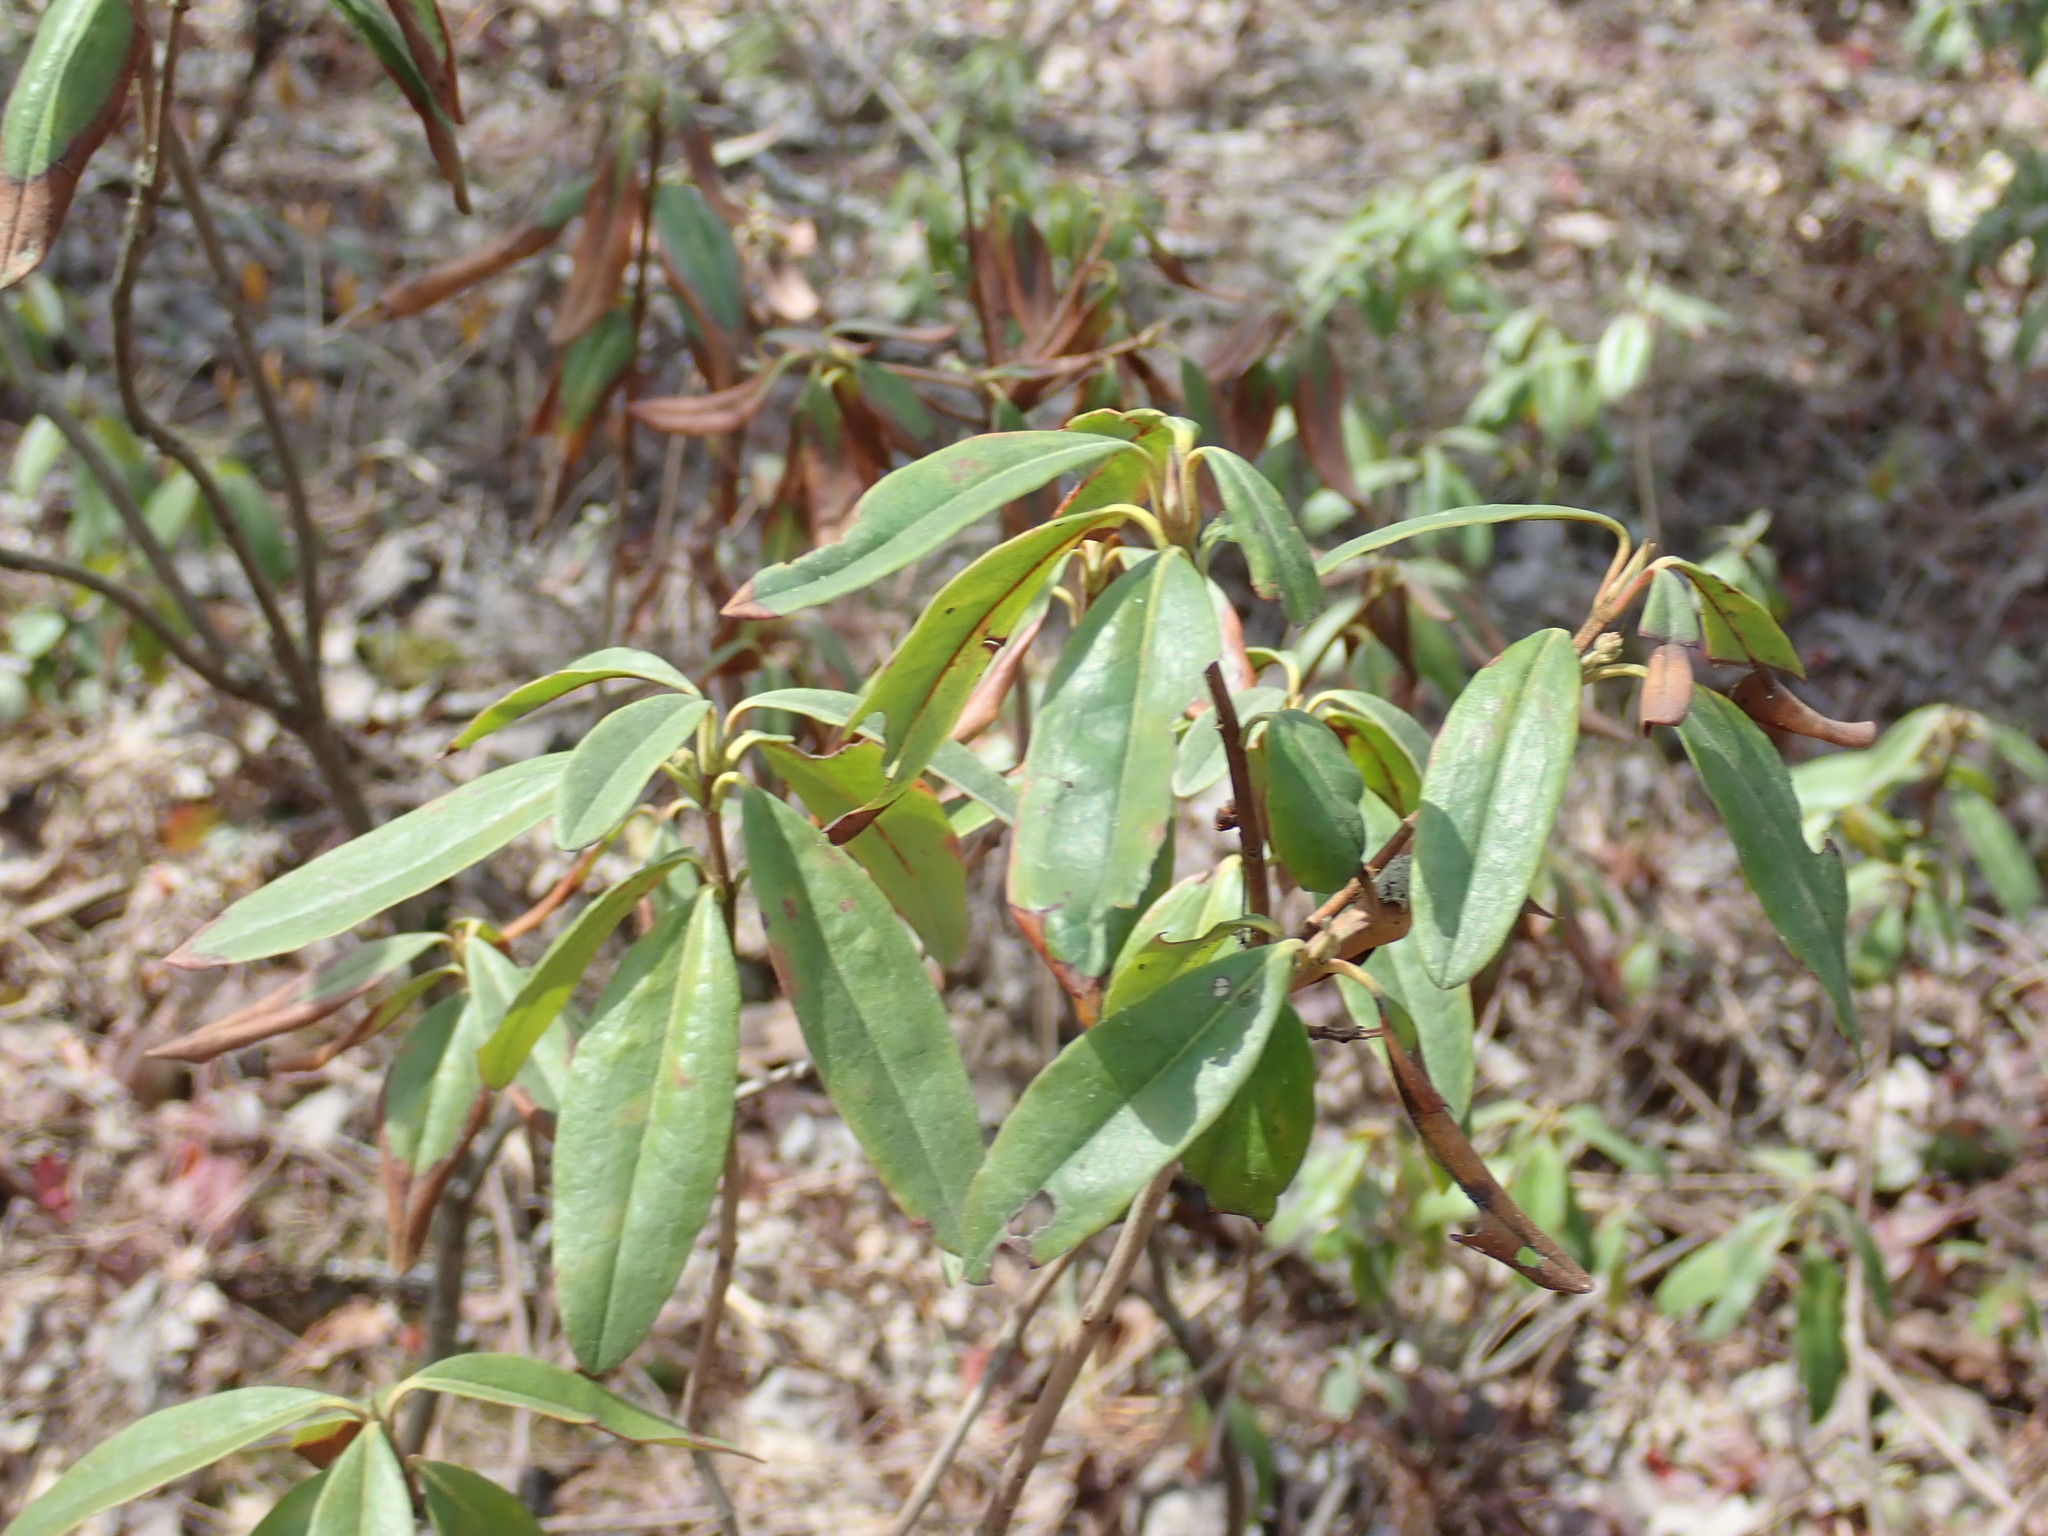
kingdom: Plantae
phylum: Tracheophyta
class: Magnoliopsida
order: Ericales
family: Ericaceae
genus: Kalmia
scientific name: Kalmia angustifolia
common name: Sheep-laurel
